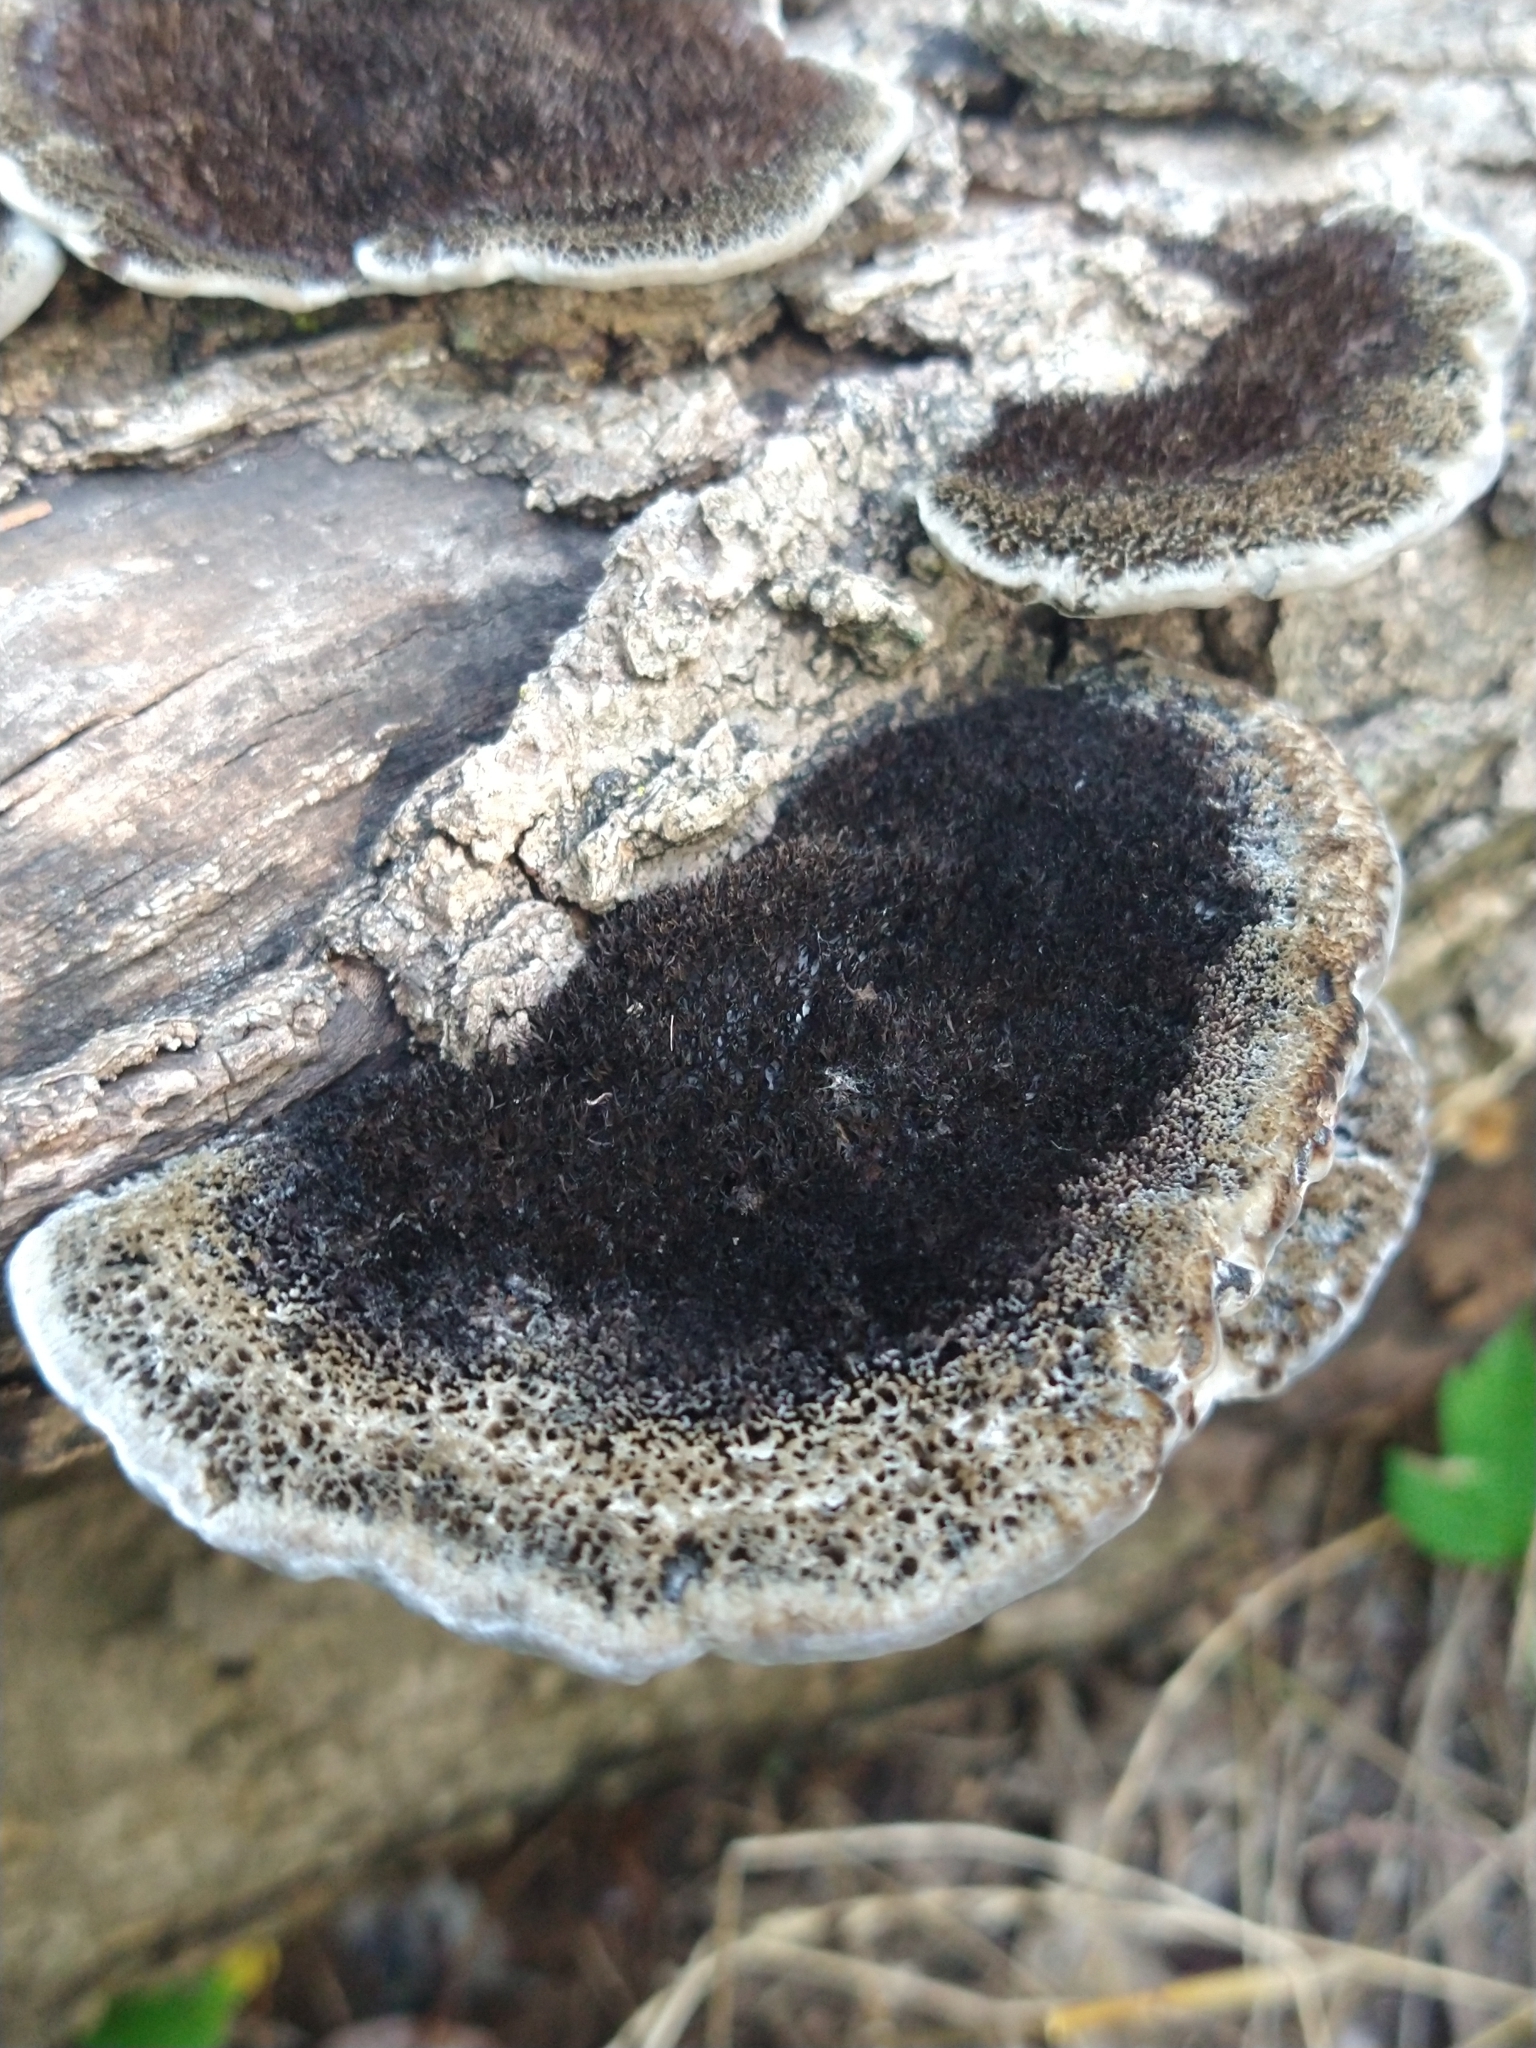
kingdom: Fungi
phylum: Basidiomycota
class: Agaricomycetes
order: Polyporales
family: Cerrenaceae
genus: Cerrena
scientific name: Cerrena hydnoides
